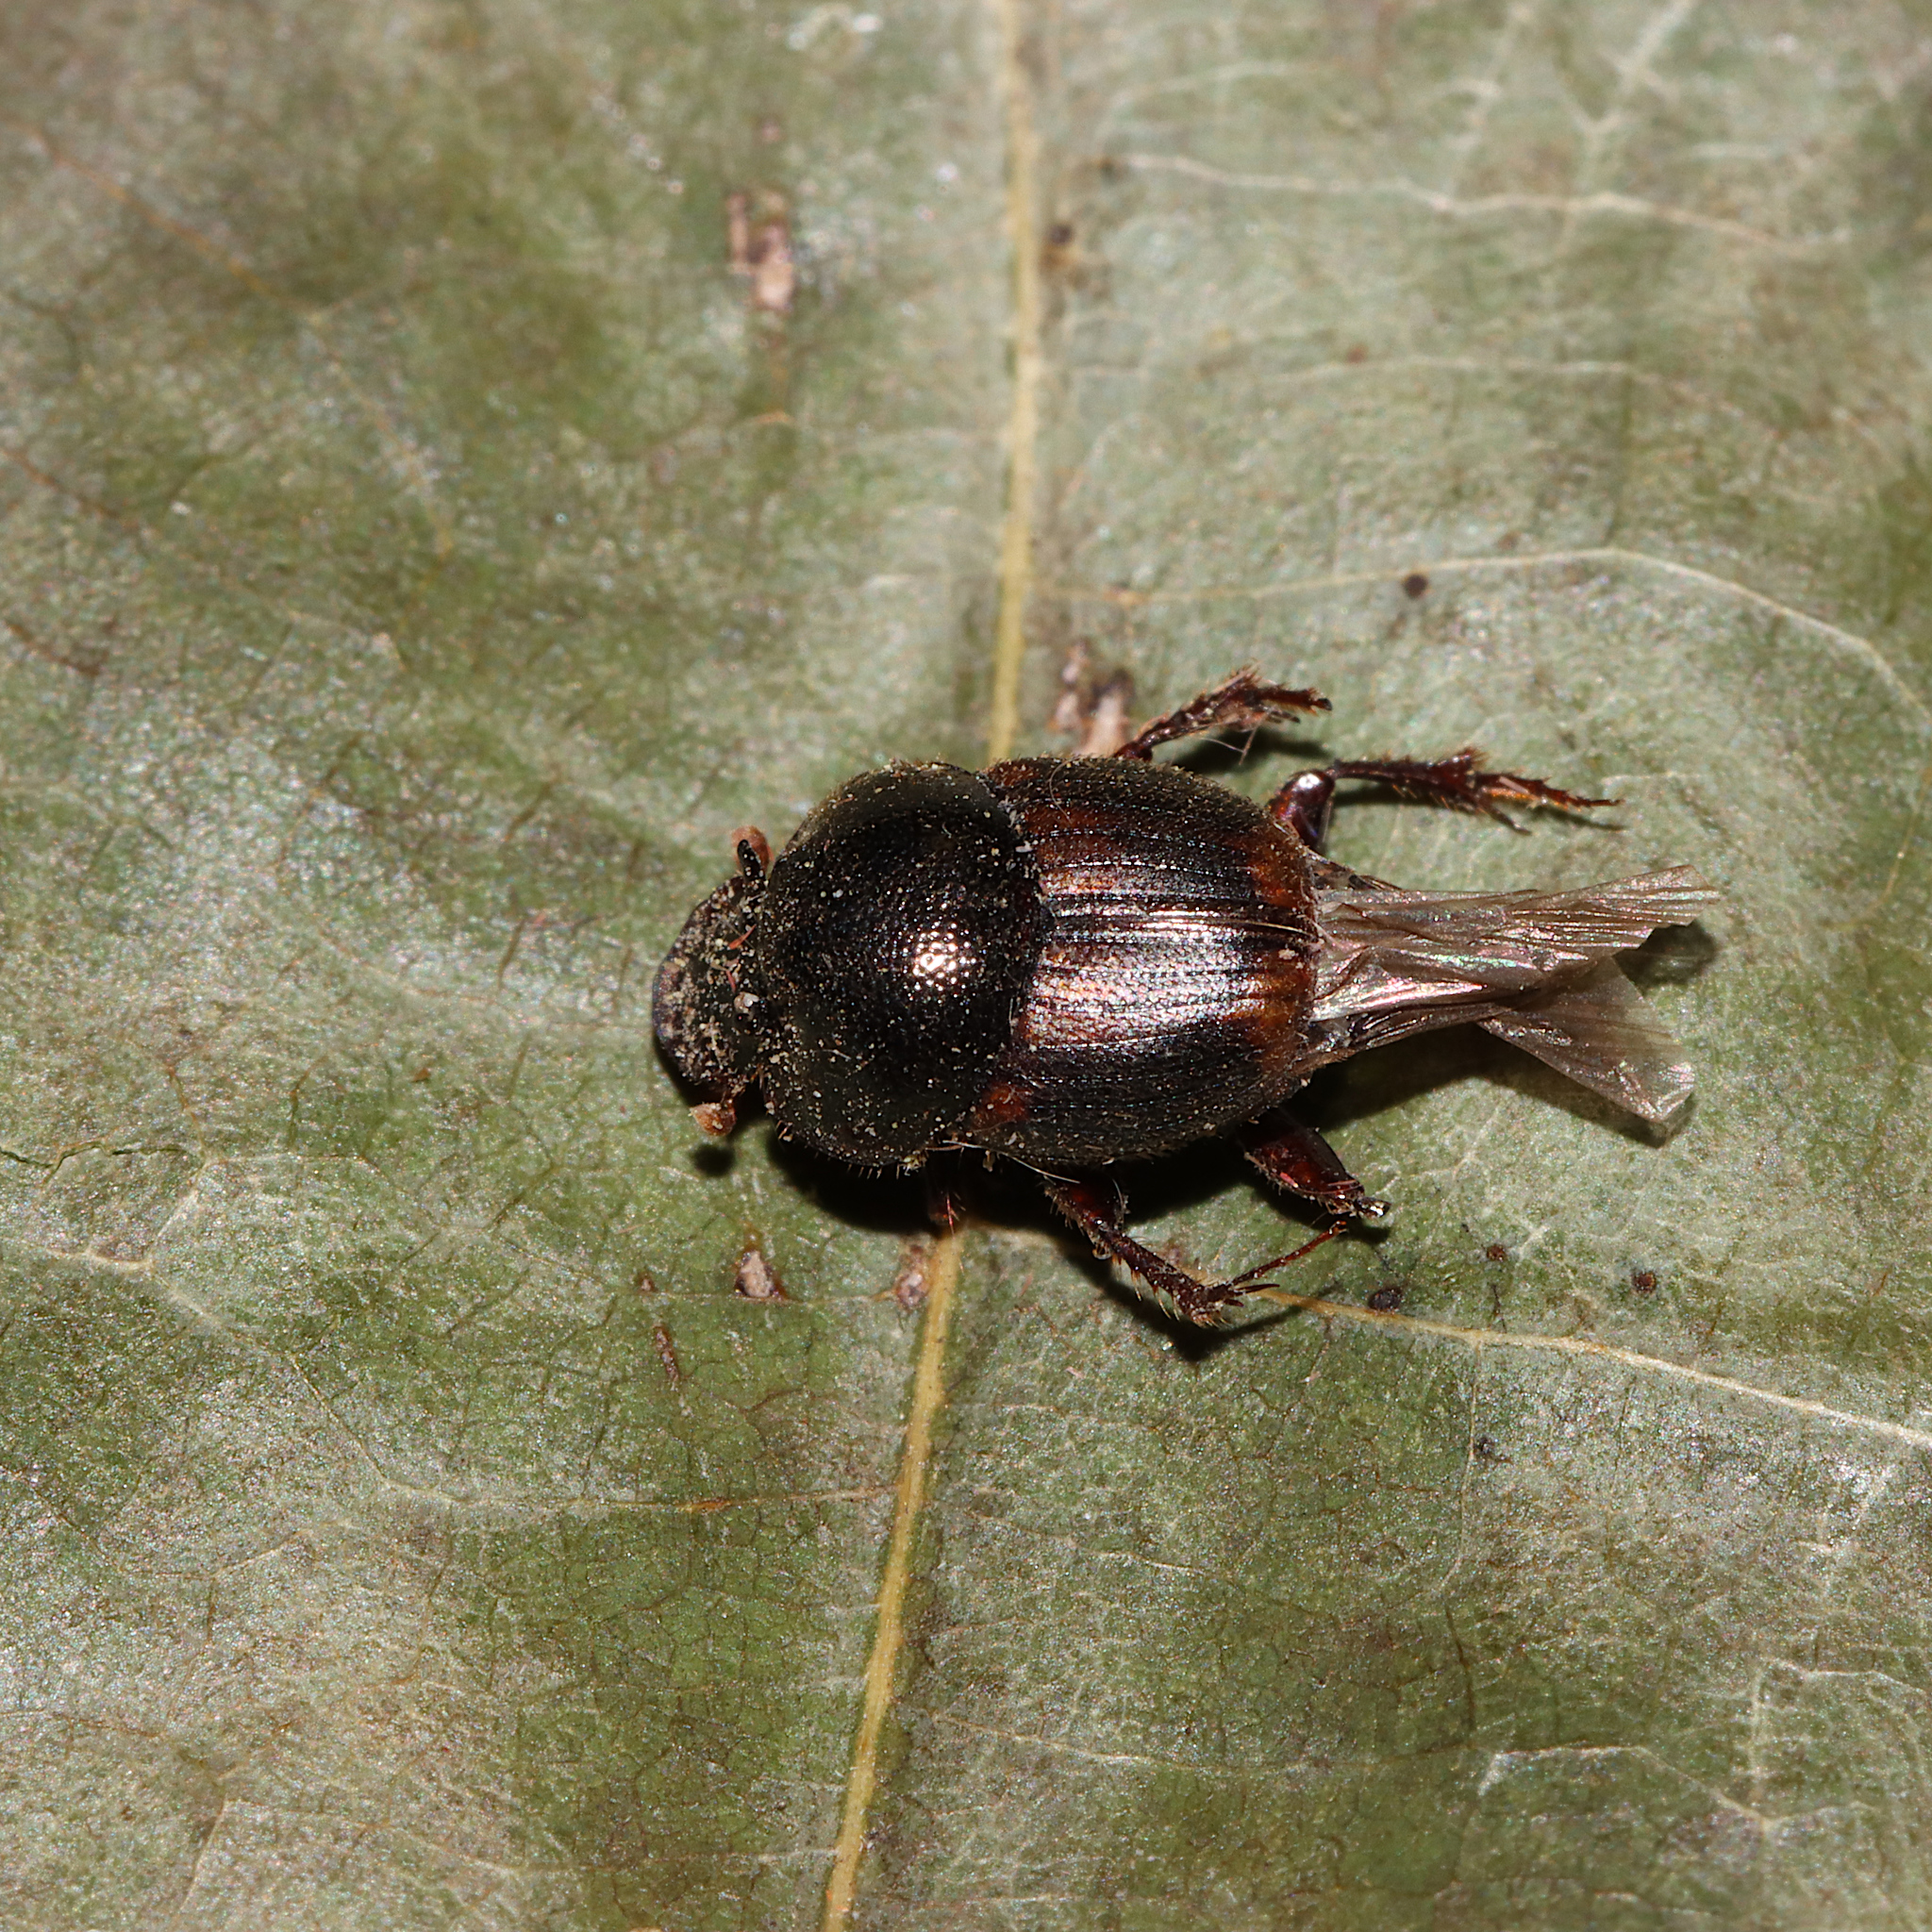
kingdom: Animalia
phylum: Arthropoda
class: Insecta
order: Coleoptera
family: Scarabaeidae
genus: Onthophagus
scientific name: Onthophagus striatulus
